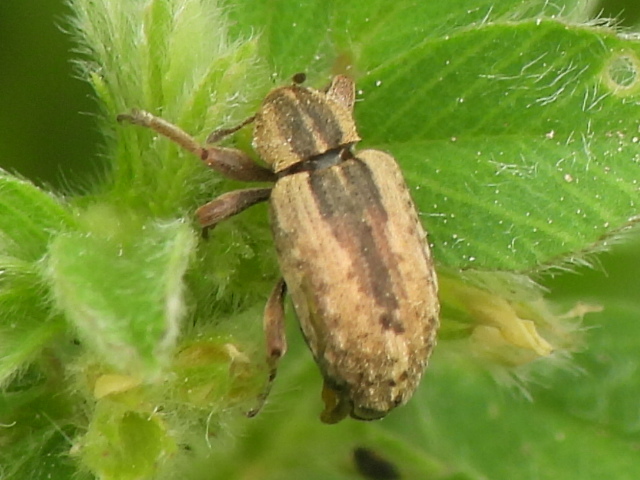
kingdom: Animalia
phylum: Arthropoda
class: Insecta
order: Coleoptera
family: Curculionidae
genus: Hypera
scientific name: Hypera postica
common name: Weevil
